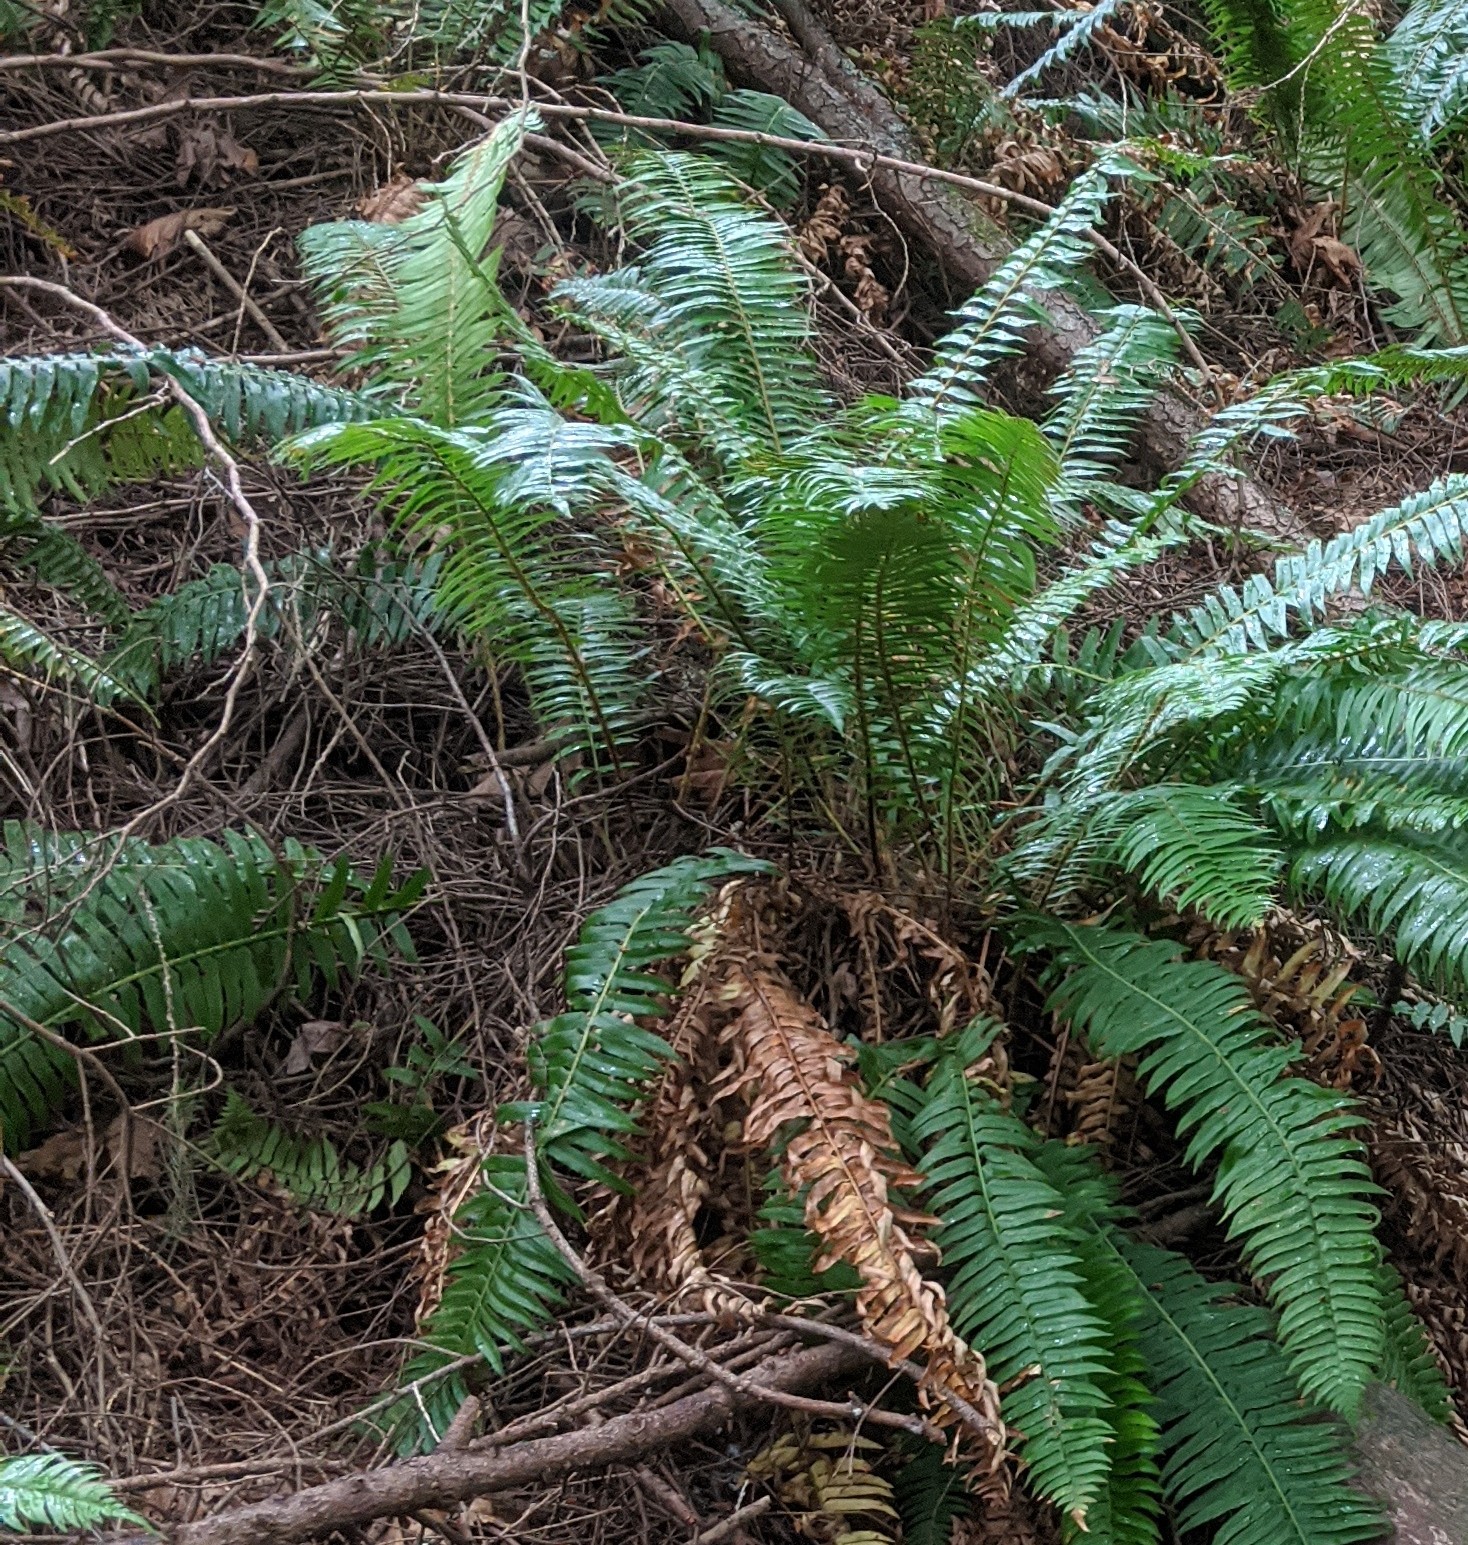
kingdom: Plantae
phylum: Tracheophyta
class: Polypodiopsida
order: Polypodiales
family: Dryopteridaceae
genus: Polystichum
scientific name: Polystichum munitum
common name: Western sword-fern
